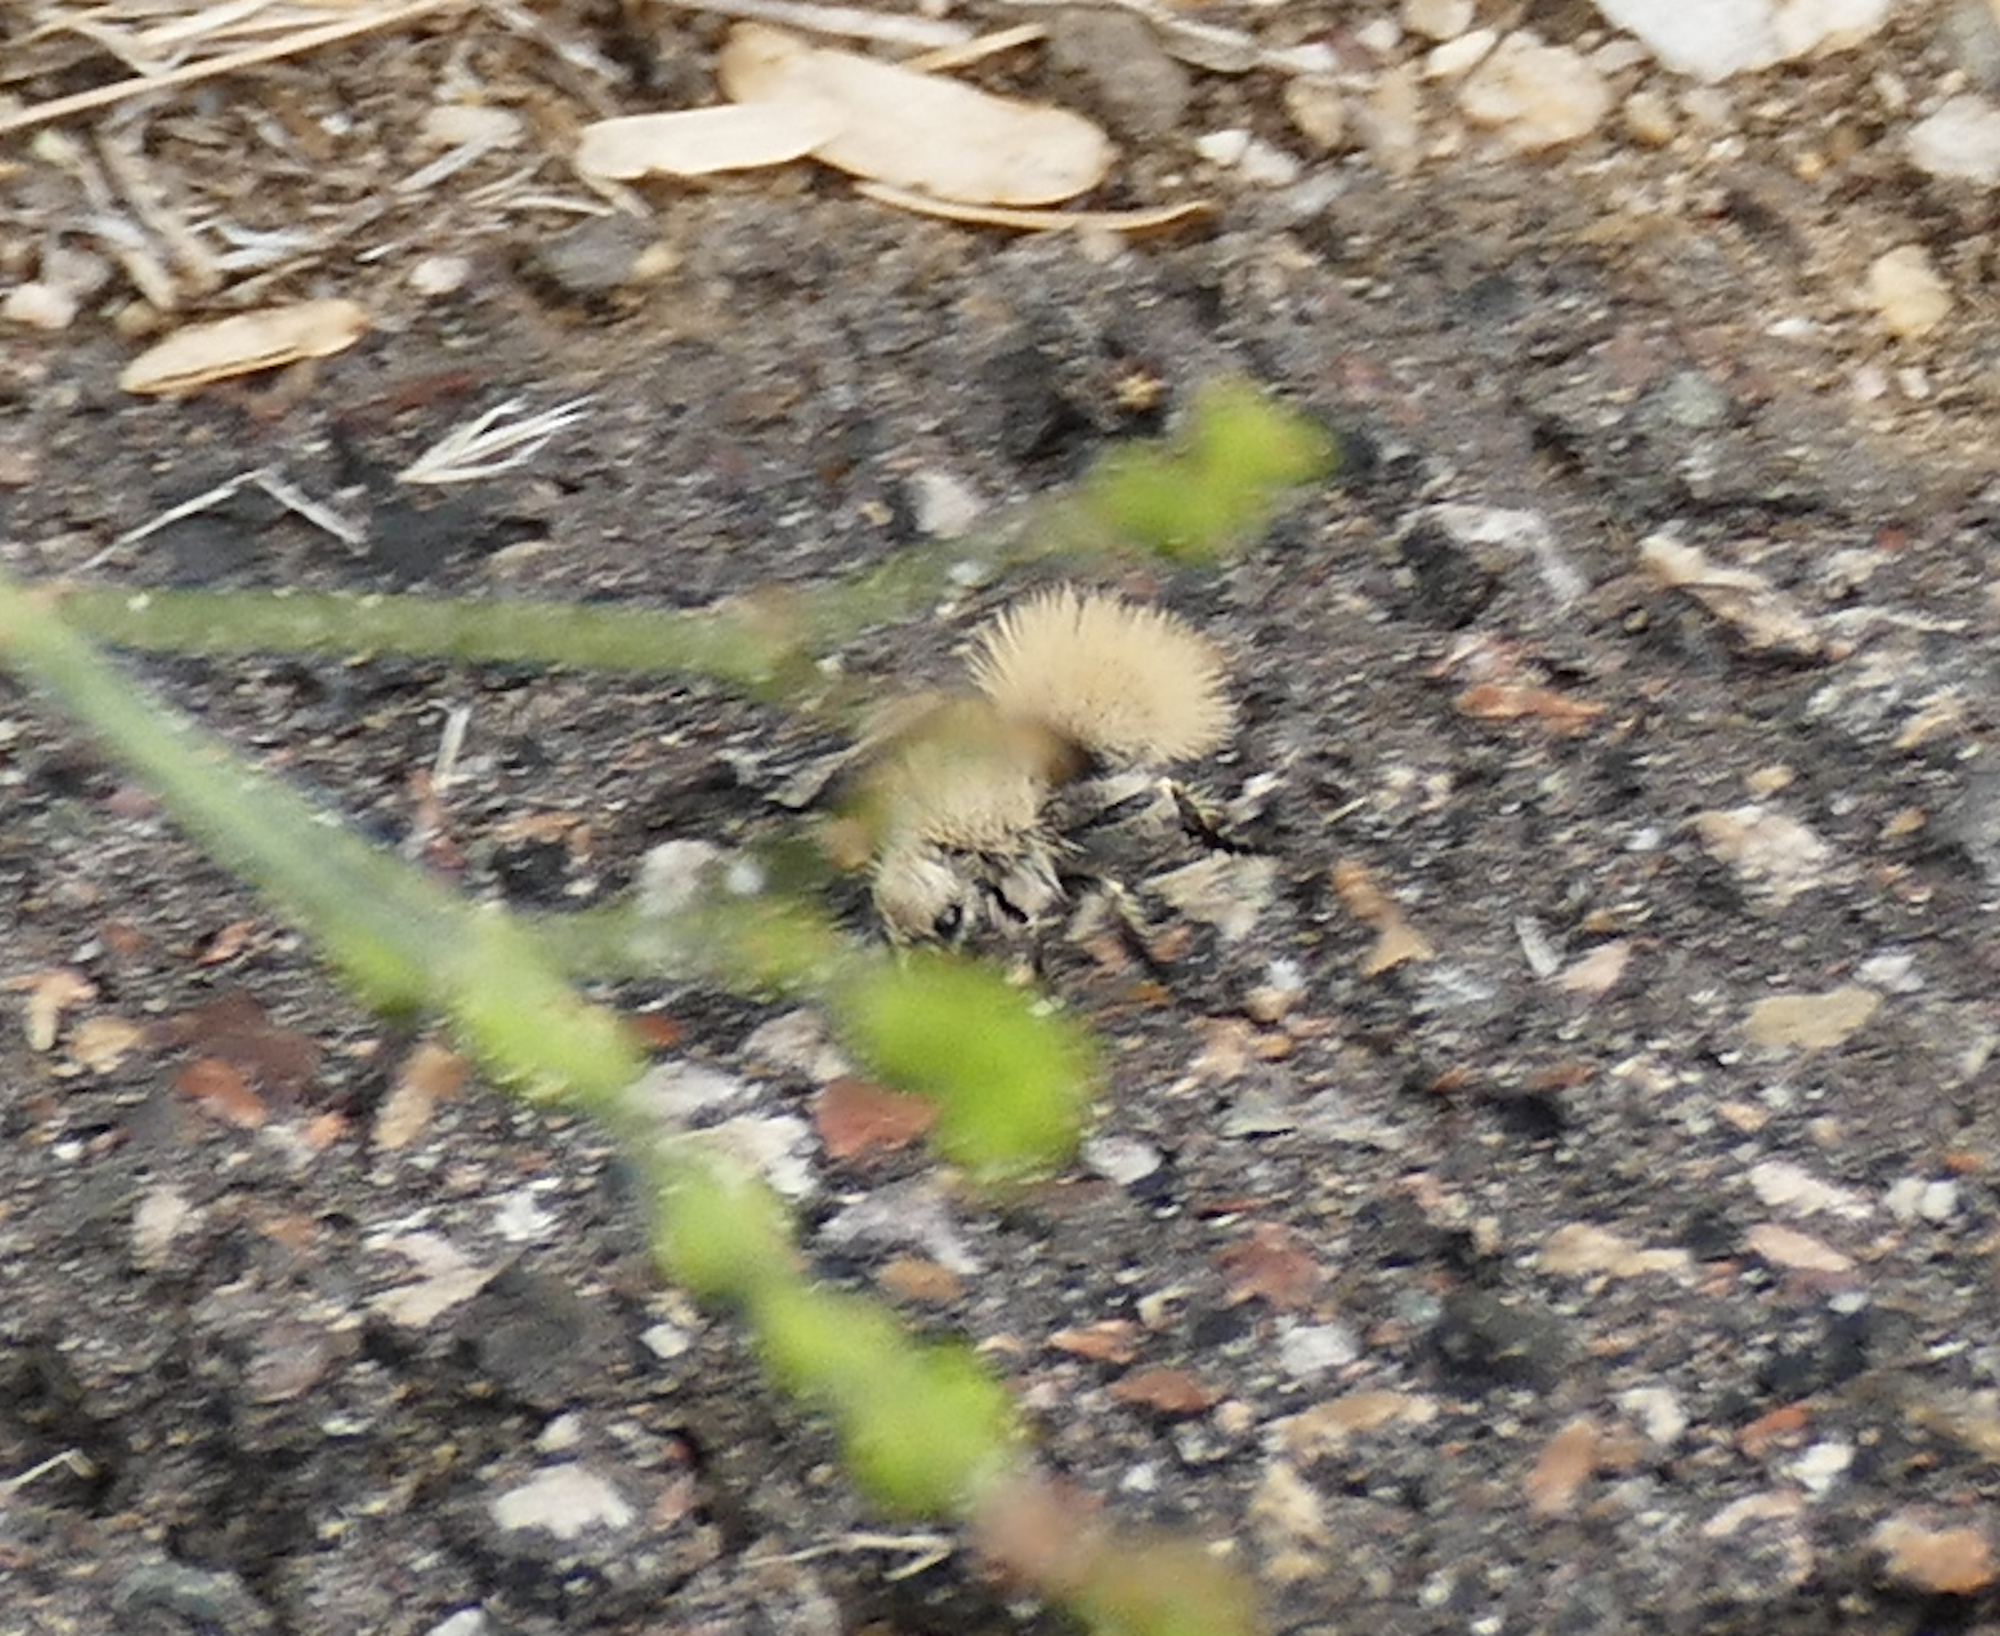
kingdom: Animalia
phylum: Arthropoda
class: Insecta
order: Hymenoptera
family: Mutillidae
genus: Dasymutilla
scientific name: Dasymutilla
